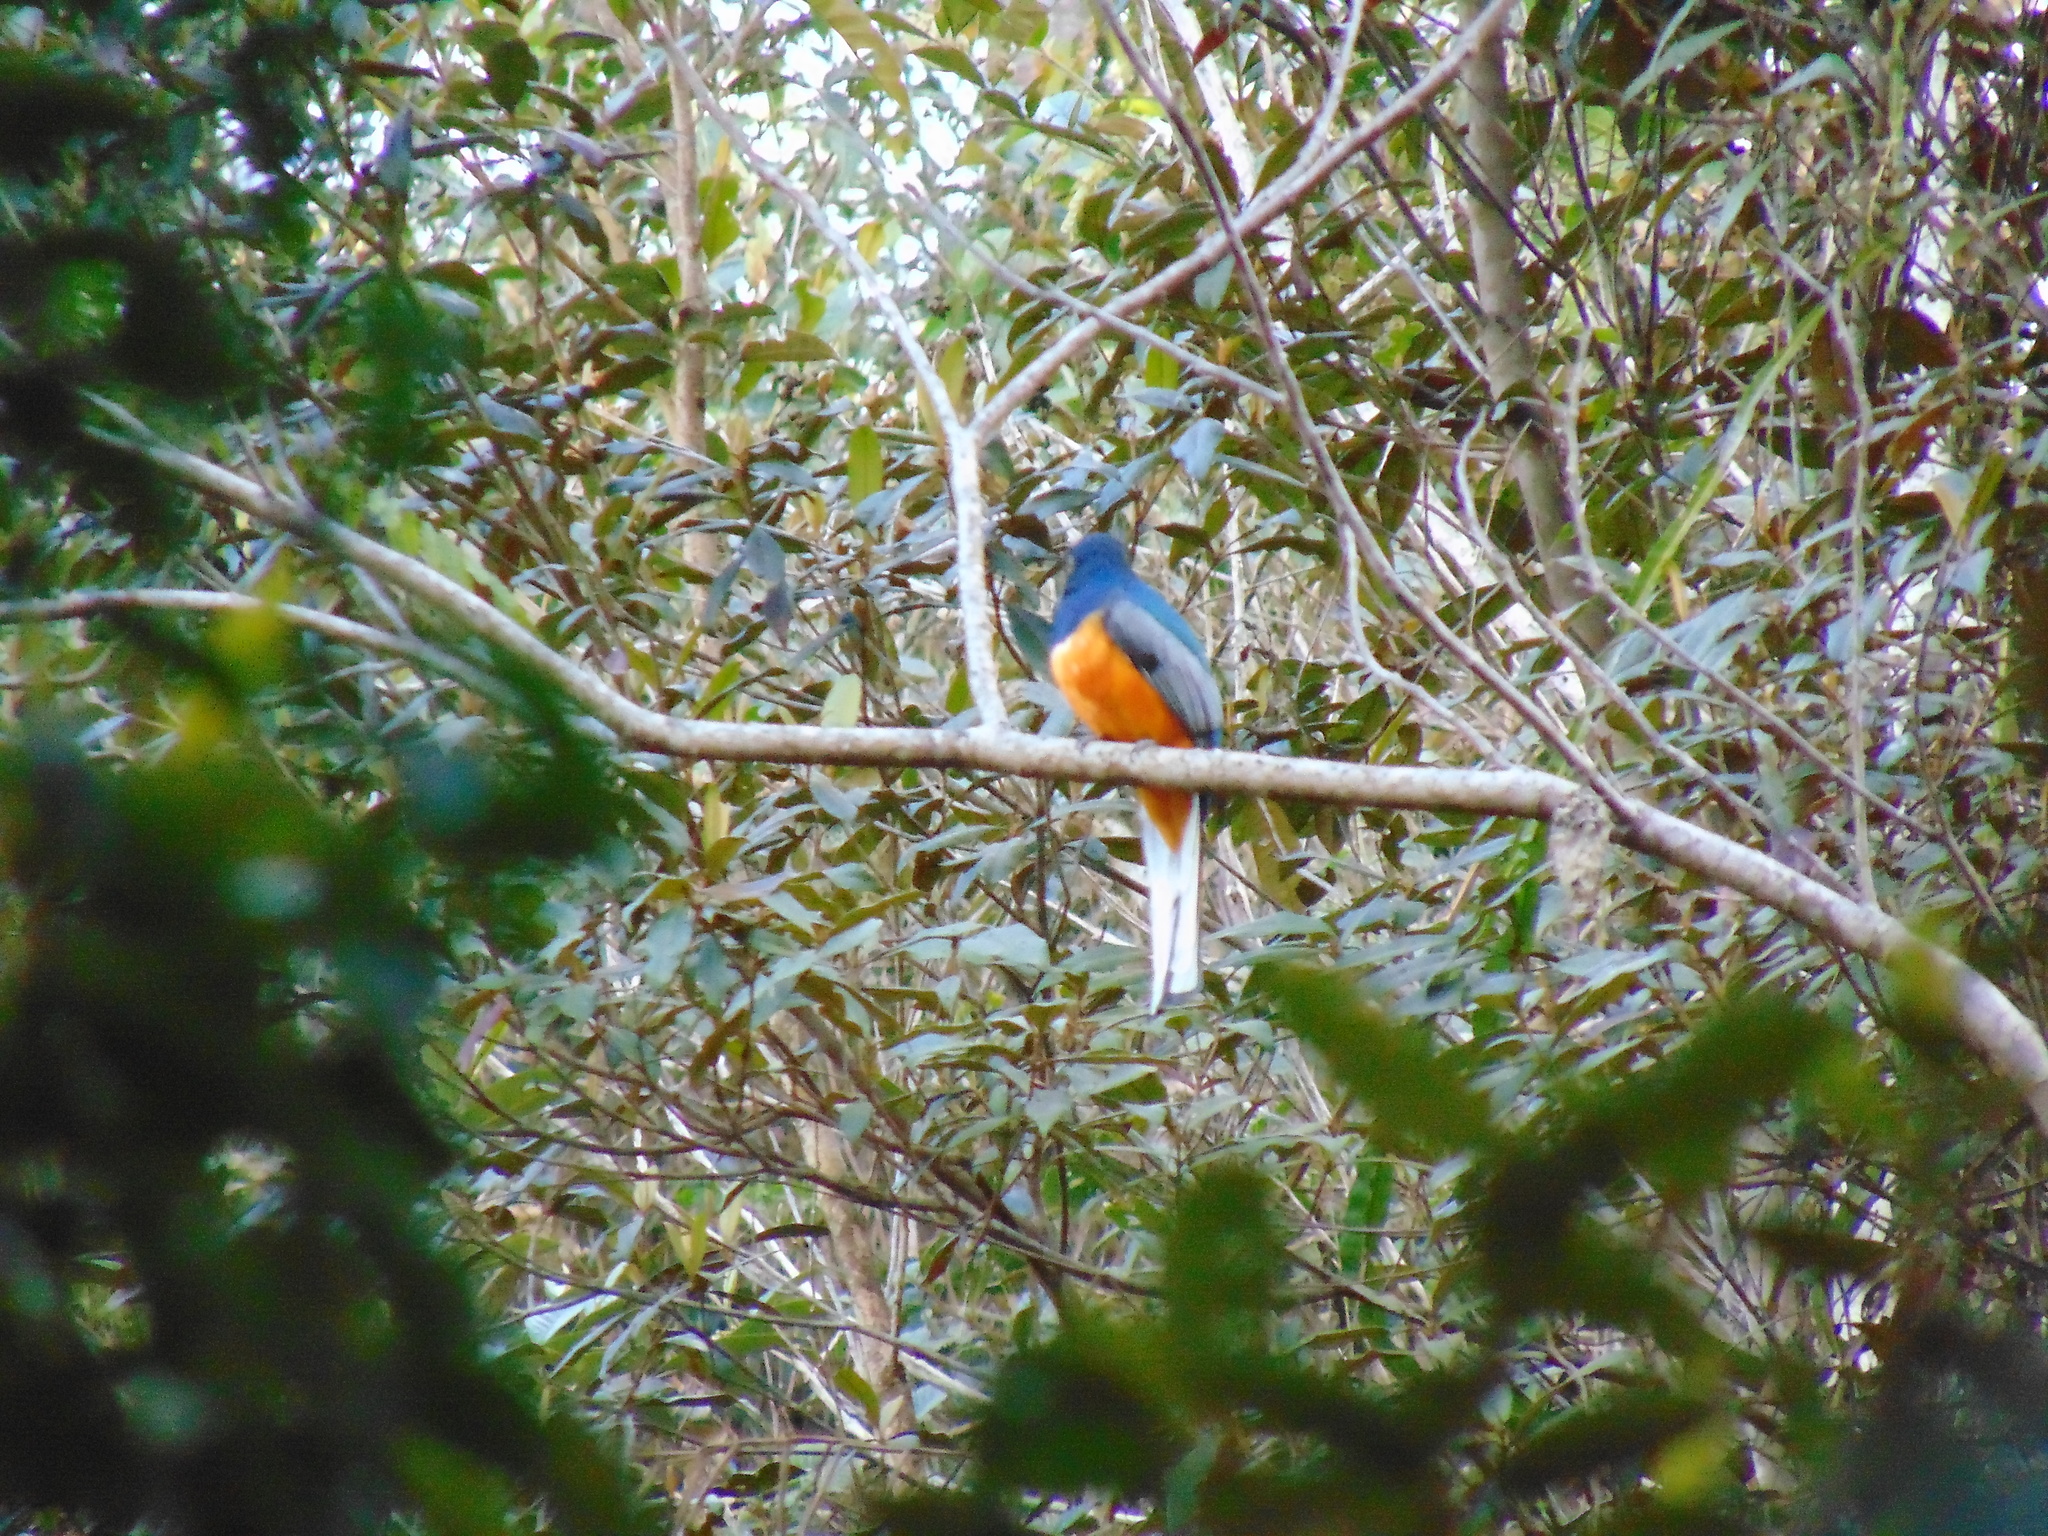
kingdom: Animalia
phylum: Chordata
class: Aves
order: Trogoniformes
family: Trogonidae
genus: Trogon
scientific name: Trogon surrucura
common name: Surucua trogon
